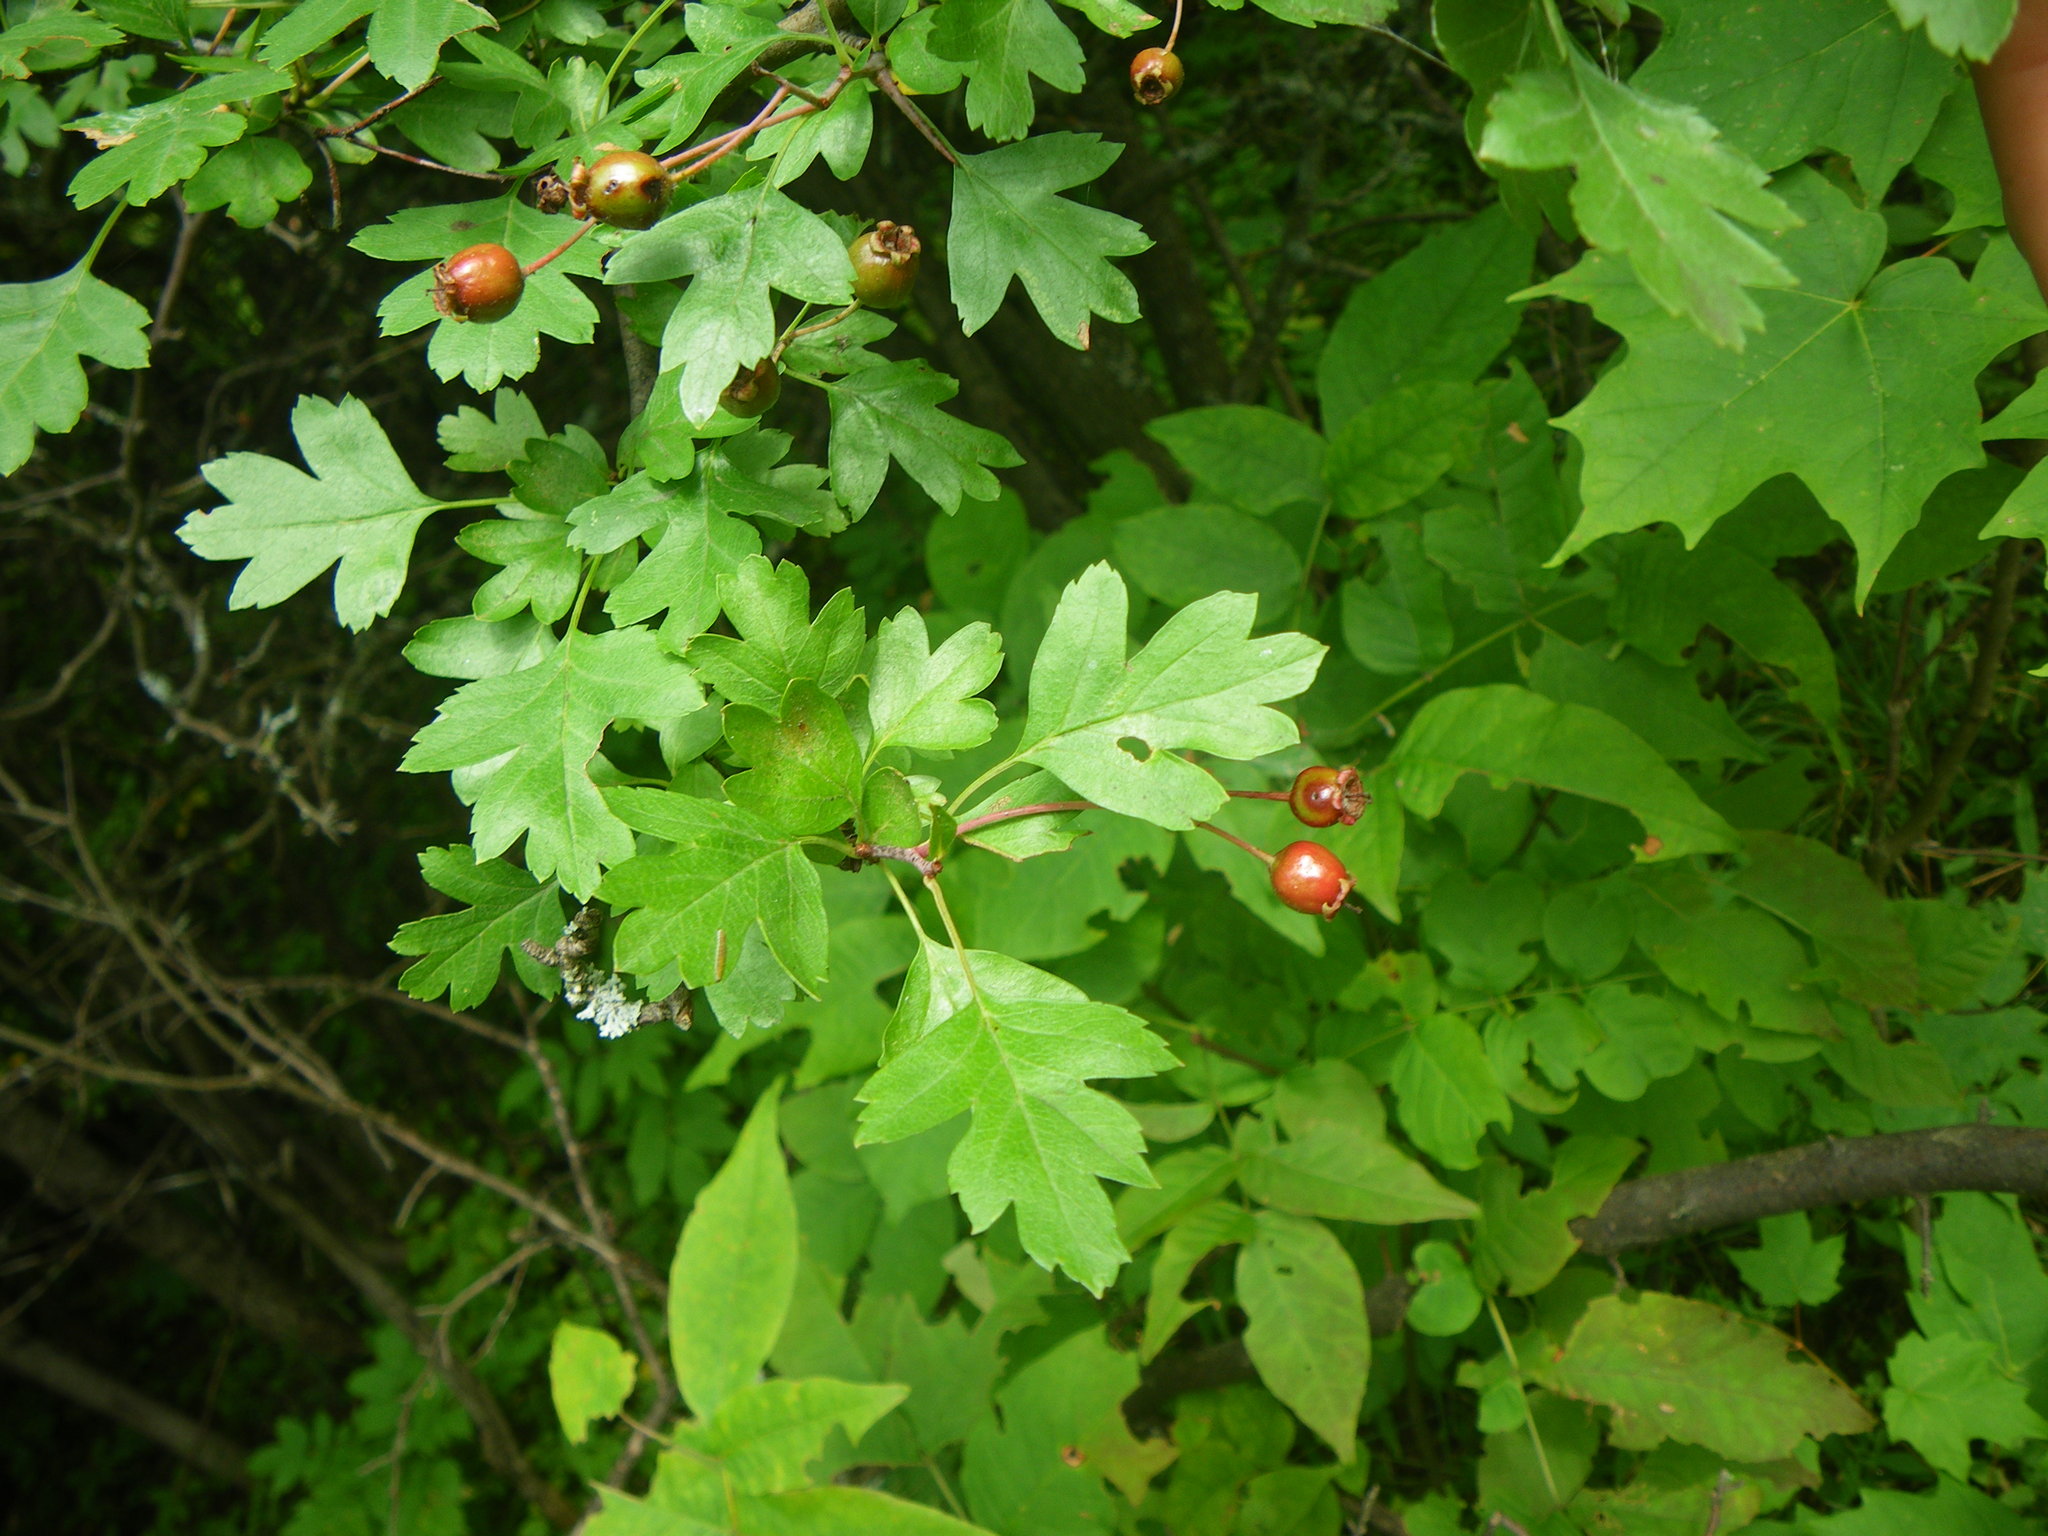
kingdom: Plantae
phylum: Tracheophyta
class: Magnoliopsida
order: Rosales
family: Rosaceae
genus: Crataegus
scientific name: Crataegus monogyna
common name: Hawthorn
